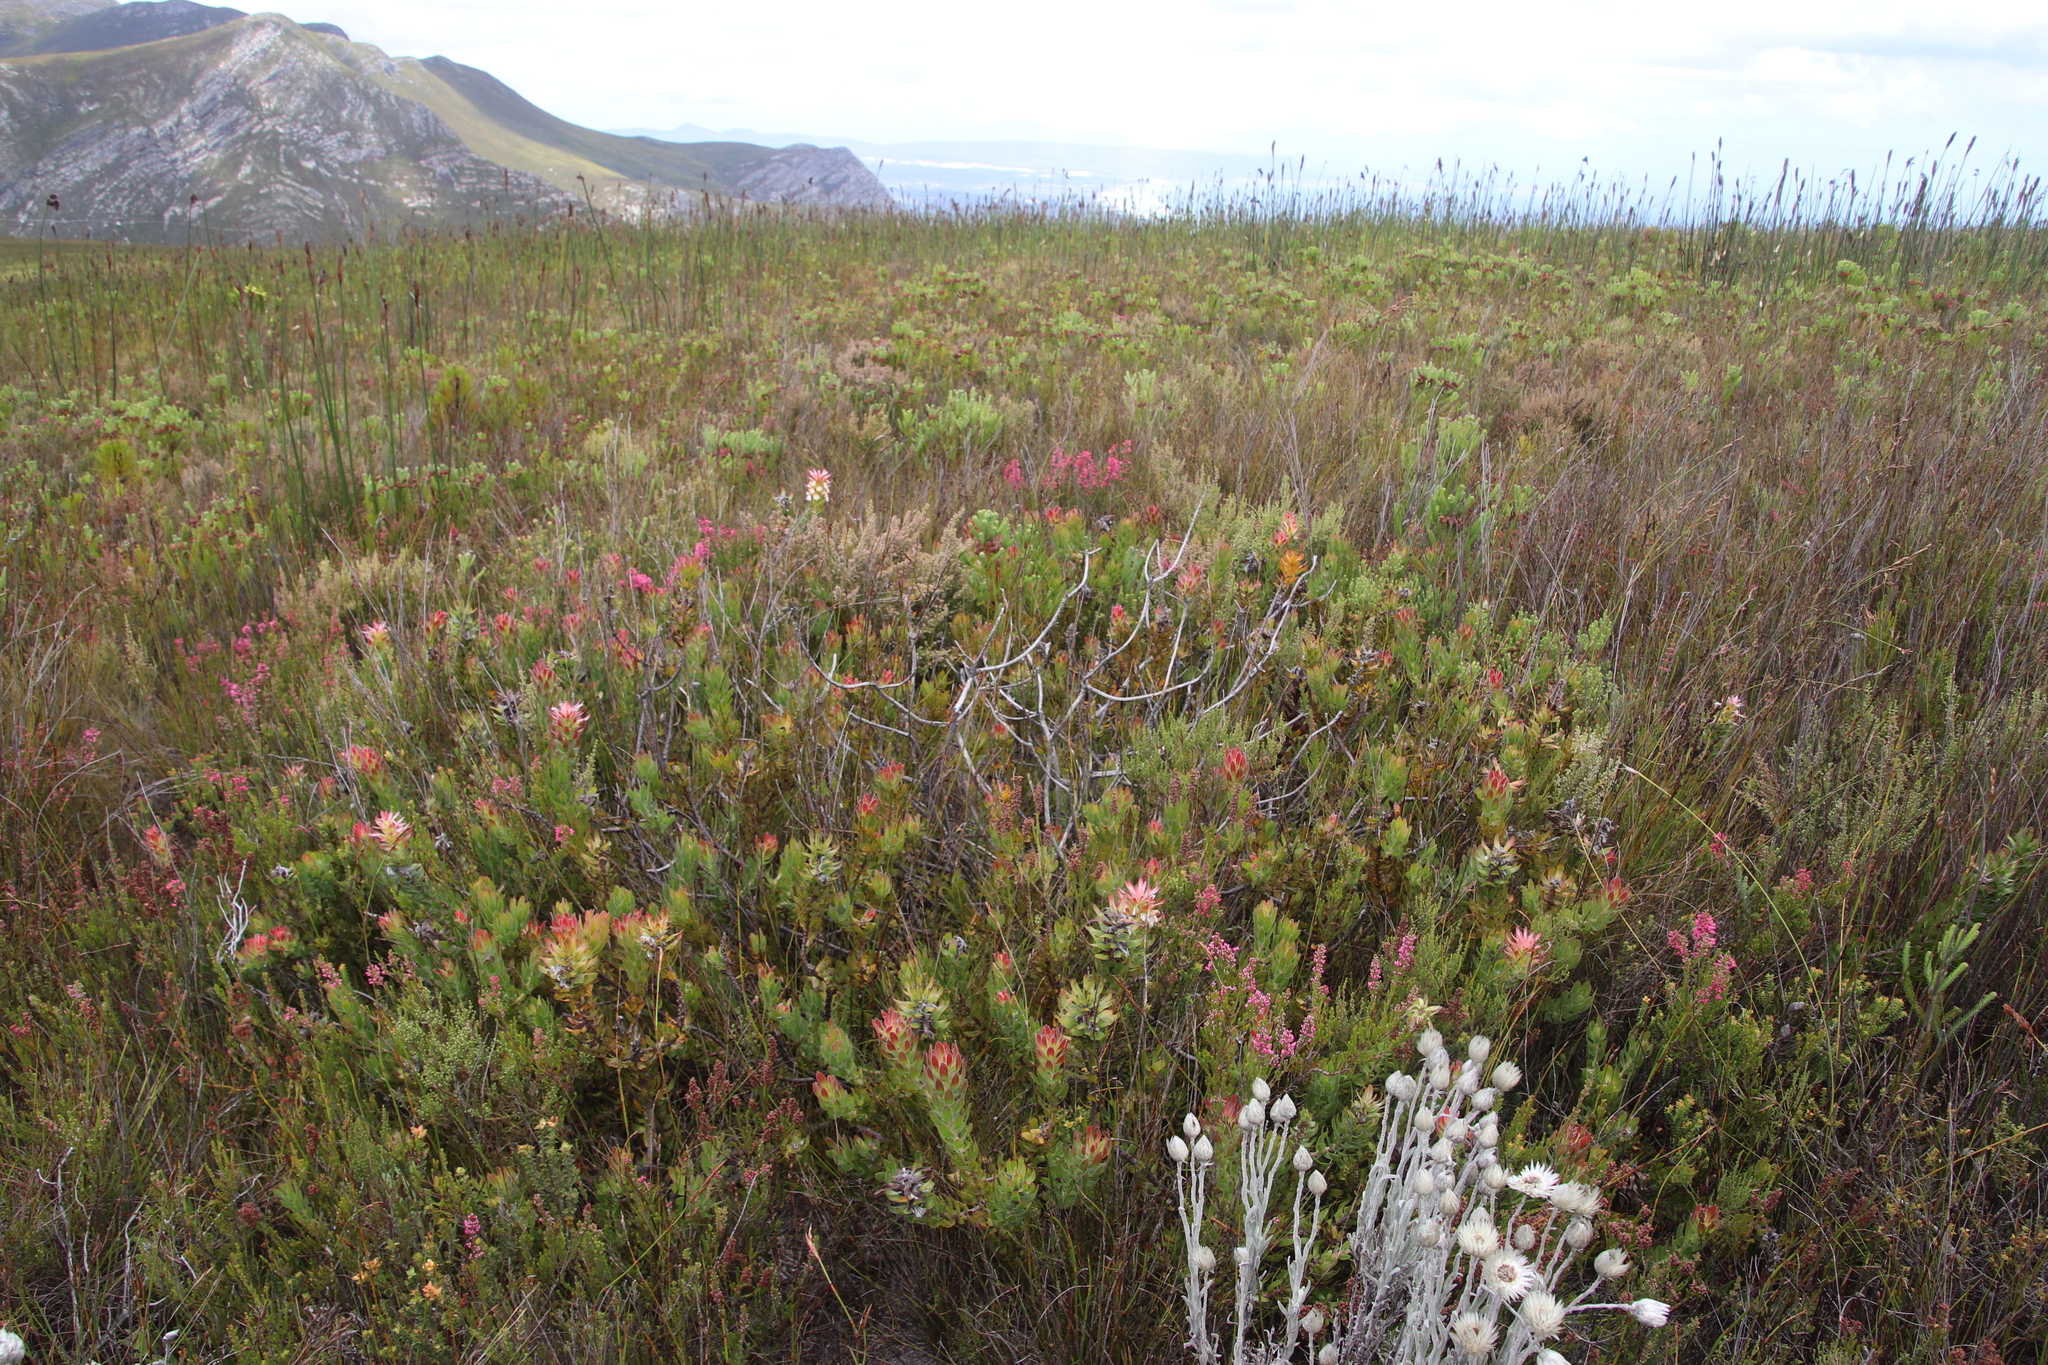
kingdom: Plantae
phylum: Tracheophyta
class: Magnoliopsida
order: Proteales
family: Proteaceae
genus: Mimetes
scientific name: Mimetes cucullatus
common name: Common pagoda
